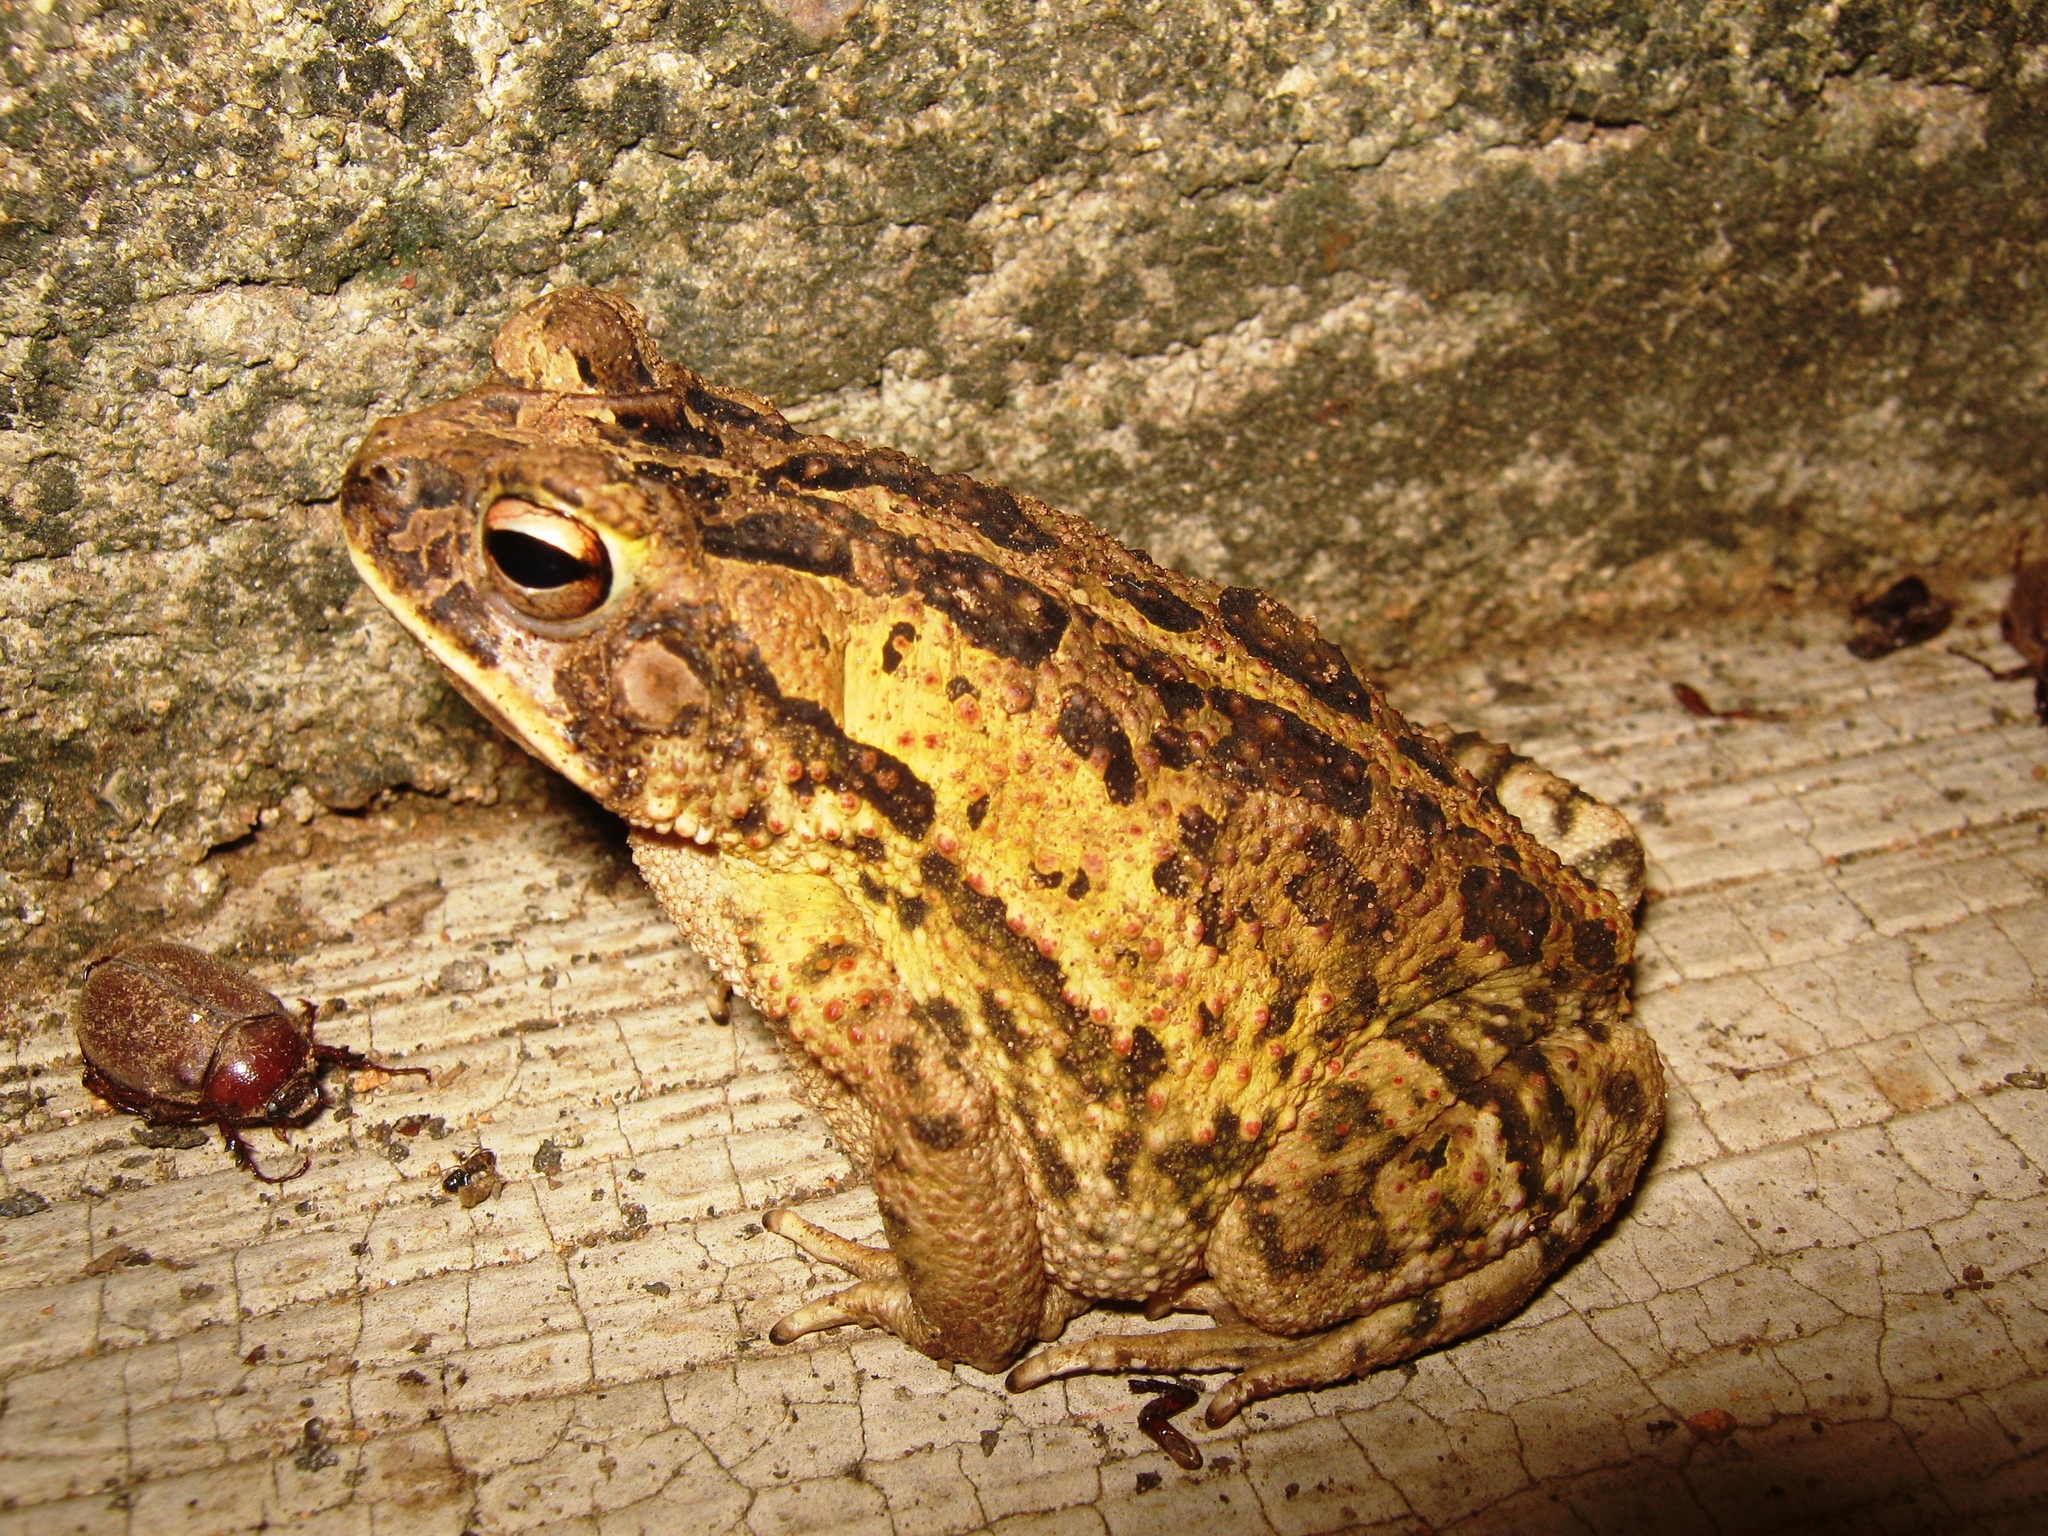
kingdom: Animalia
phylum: Chordata
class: Amphibia
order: Anura
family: Bufonidae
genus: Incilius
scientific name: Incilius marmoreus
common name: Marbled toad
